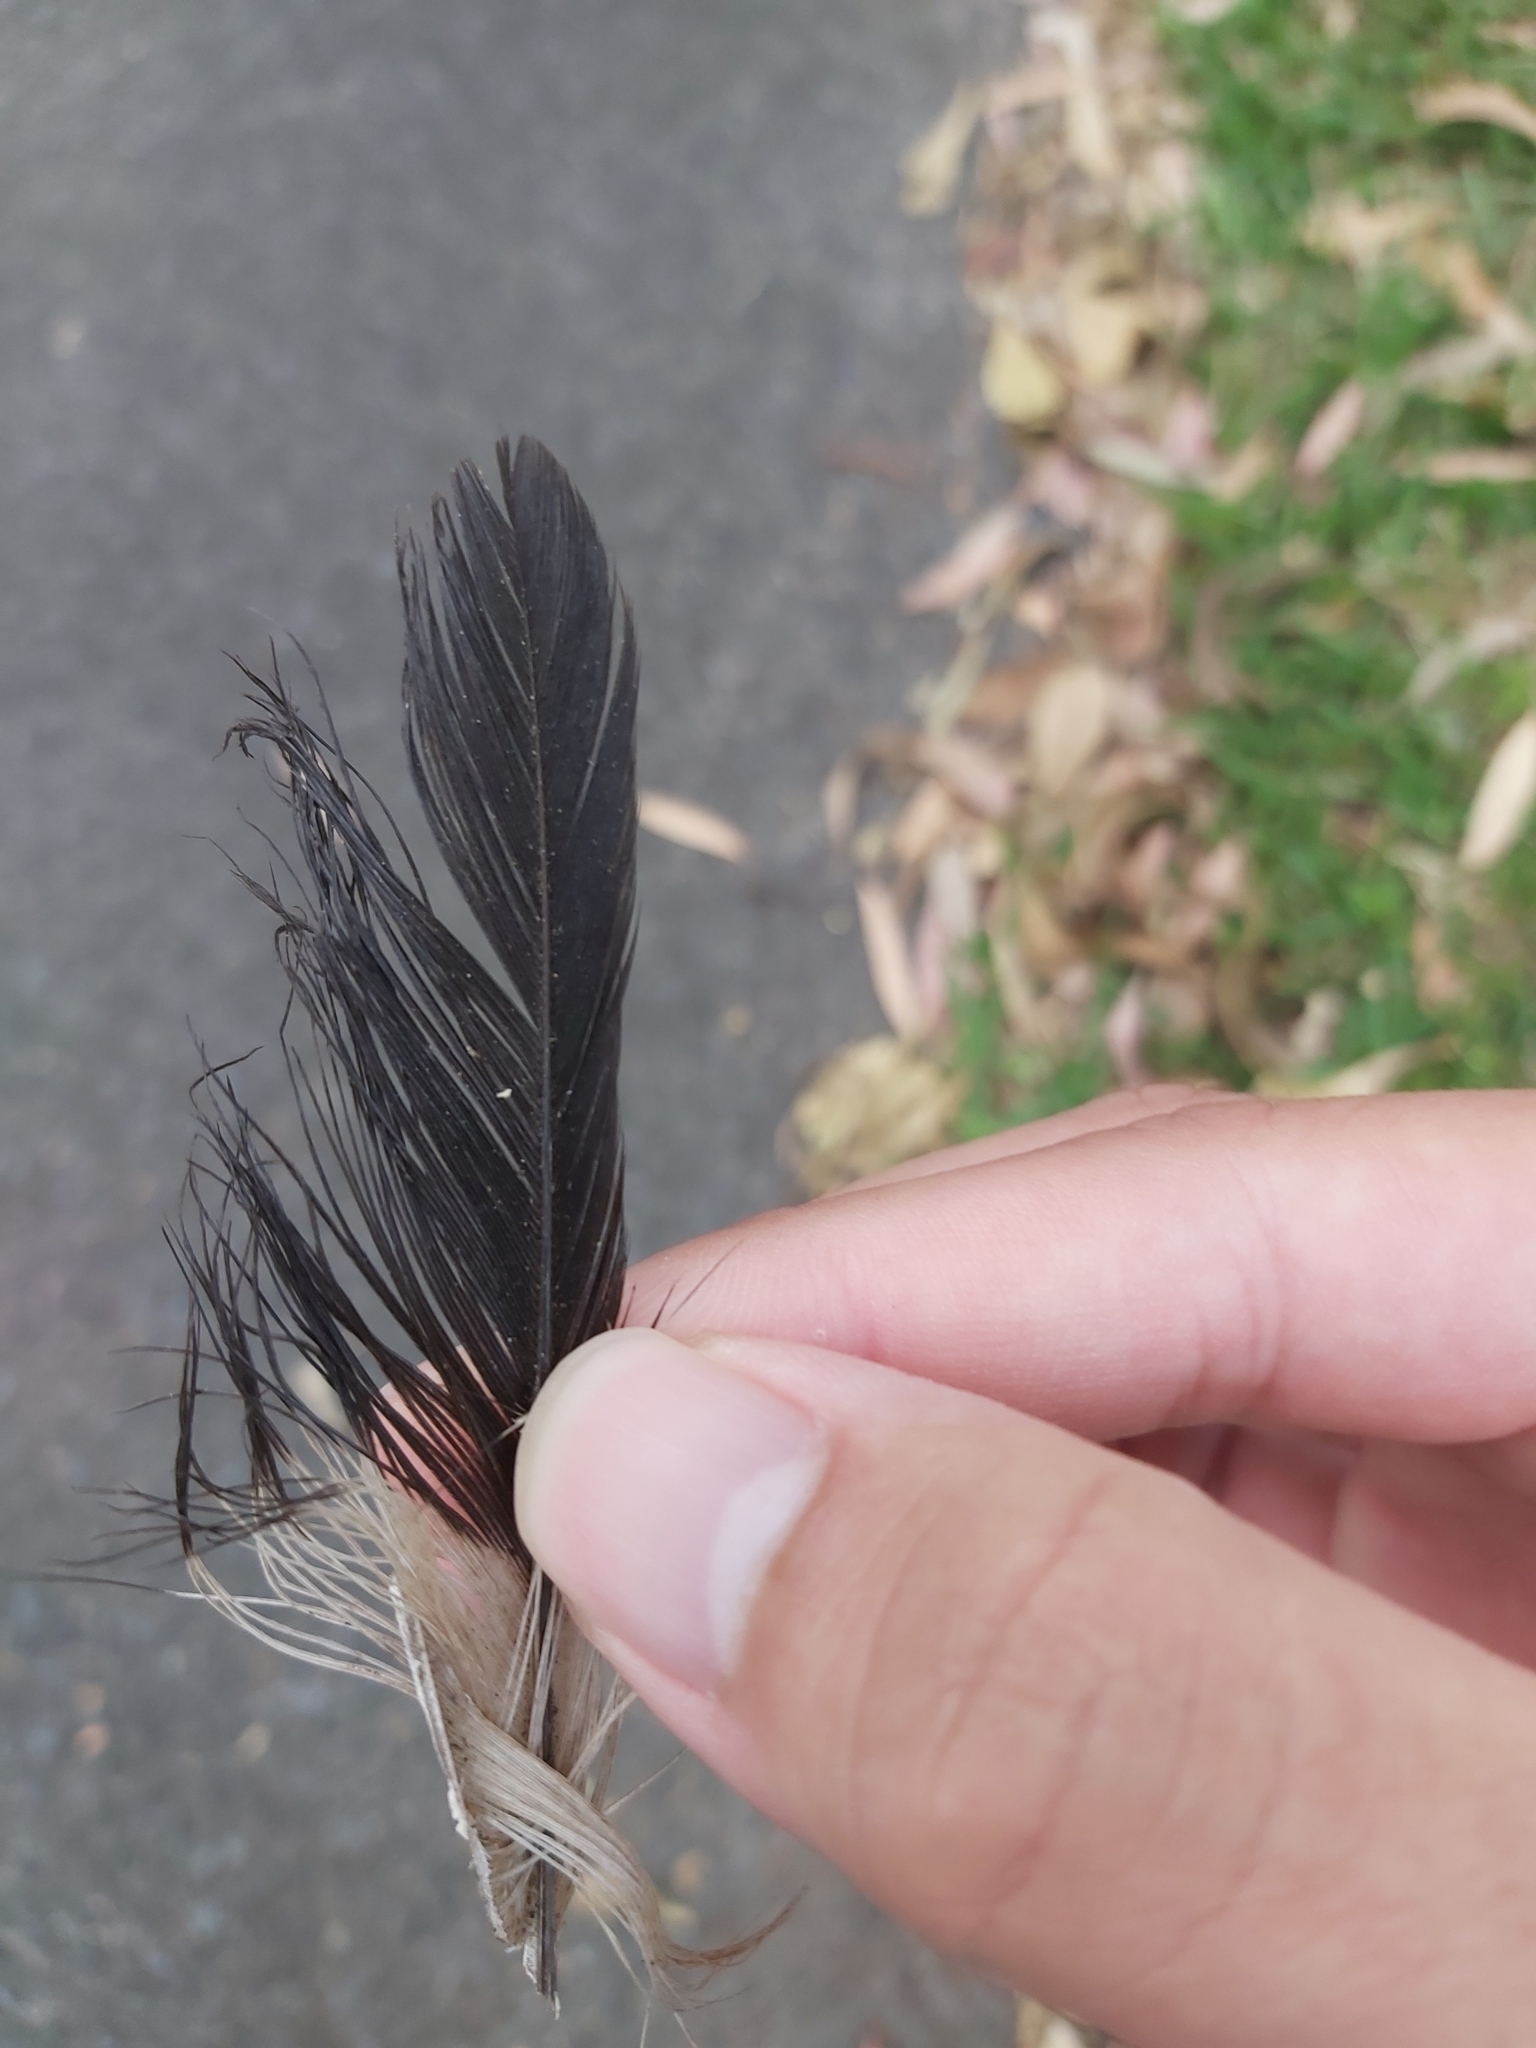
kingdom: Animalia
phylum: Chordata
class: Aves
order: Passeriformes
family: Cracticidae
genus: Gymnorhina
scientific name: Gymnorhina tibicen
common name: Australian magpie
